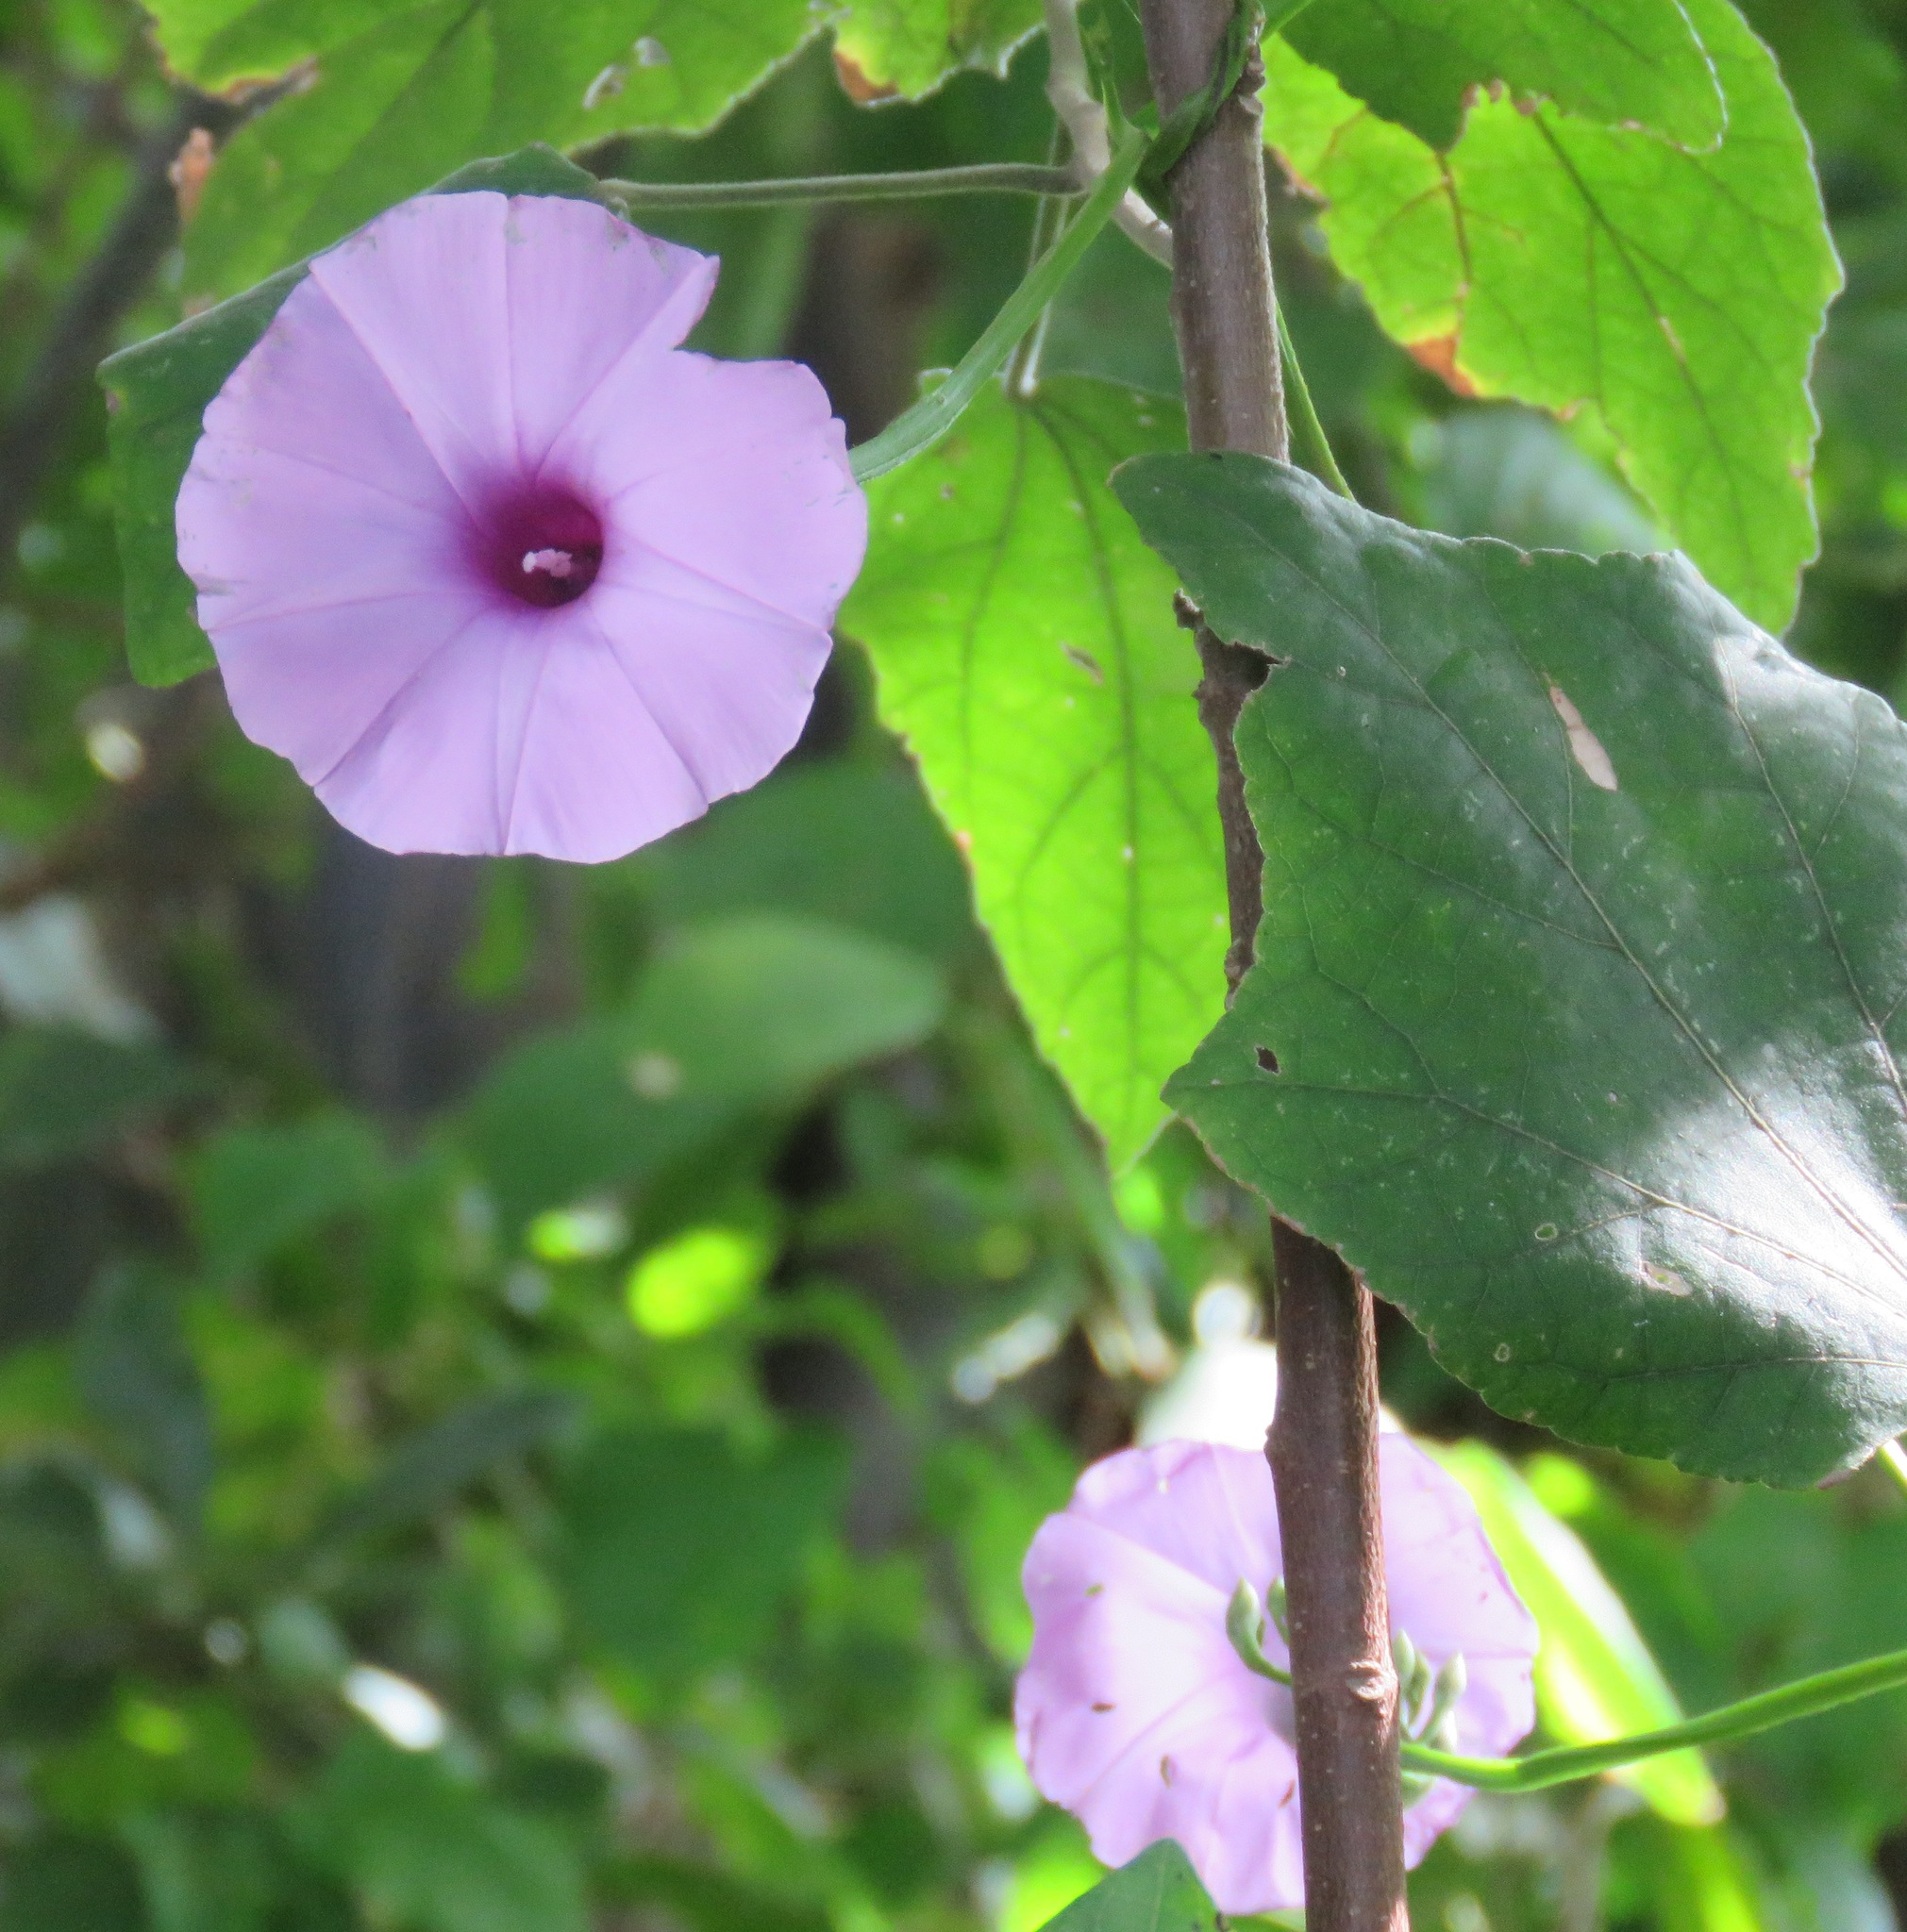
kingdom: Plantae
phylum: Tracheophyta
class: Magnoliopsida
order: Solanales
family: Convolvulaceae
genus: Ipomoea
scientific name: Ipomoea trifida
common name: Cotton morningglory
